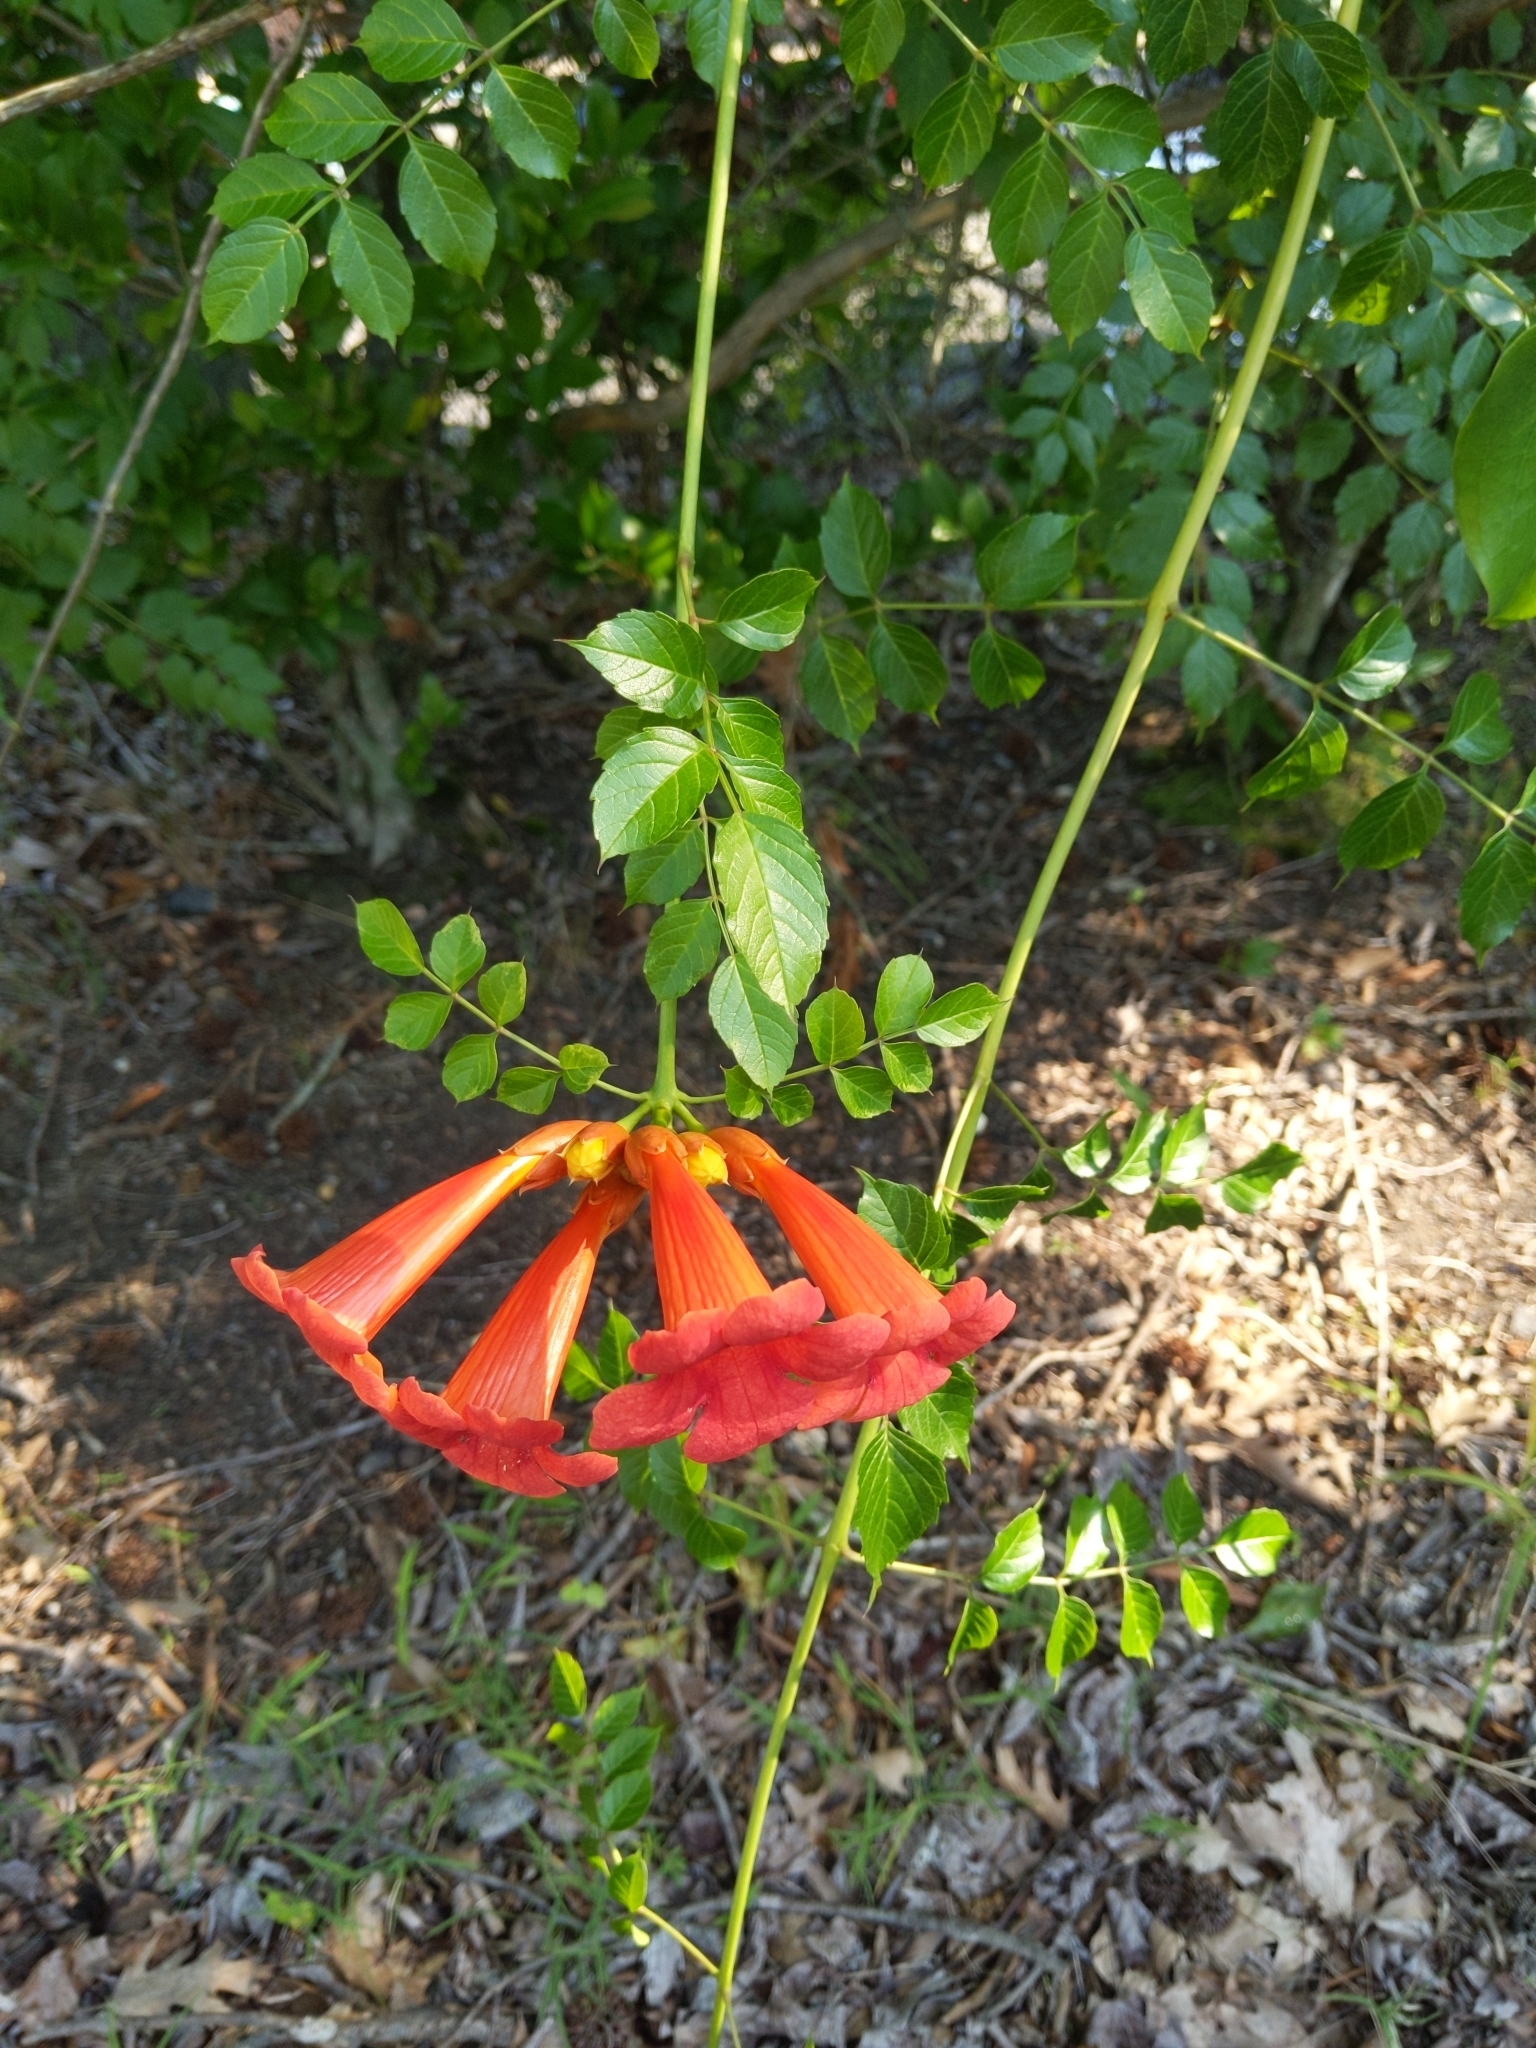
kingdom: Plantae
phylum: Tracheophyta
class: Magnoliopsida
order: Lamiales
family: Bignoniaceae
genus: Campsis
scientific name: Campsis radicans
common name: Trumpet-creeper
